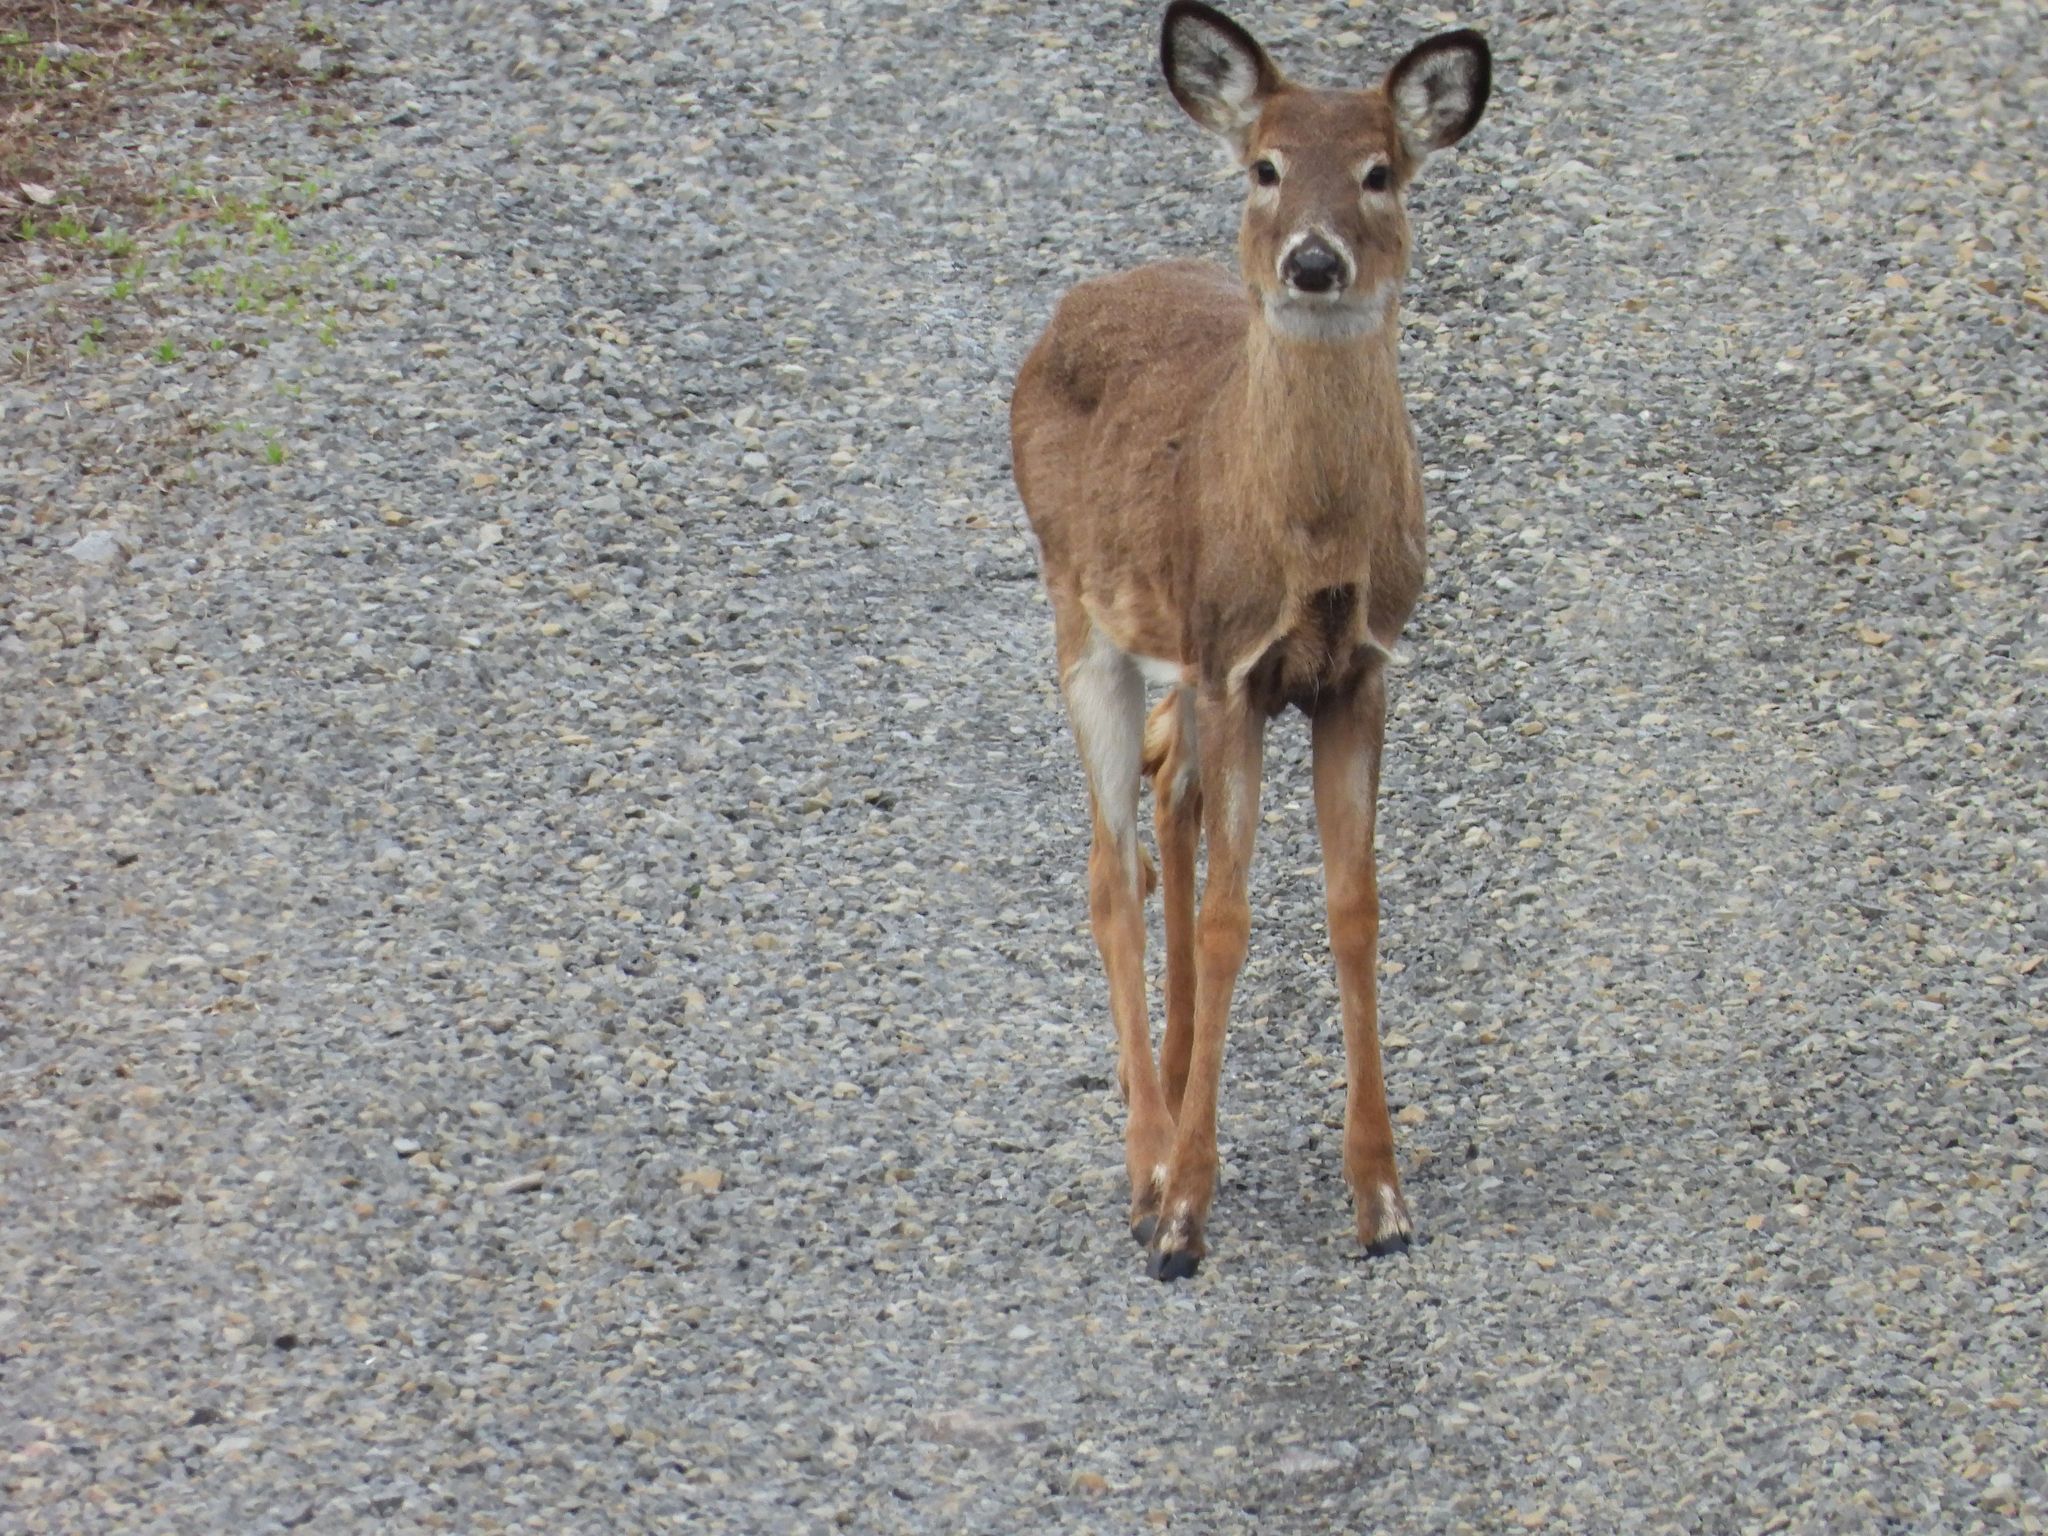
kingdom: Animalia
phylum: Chordata
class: Mammalia
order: Artiodactyla
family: Cervidae
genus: Odocoileus
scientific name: Odocoileus virginianus
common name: White-tailed deer
